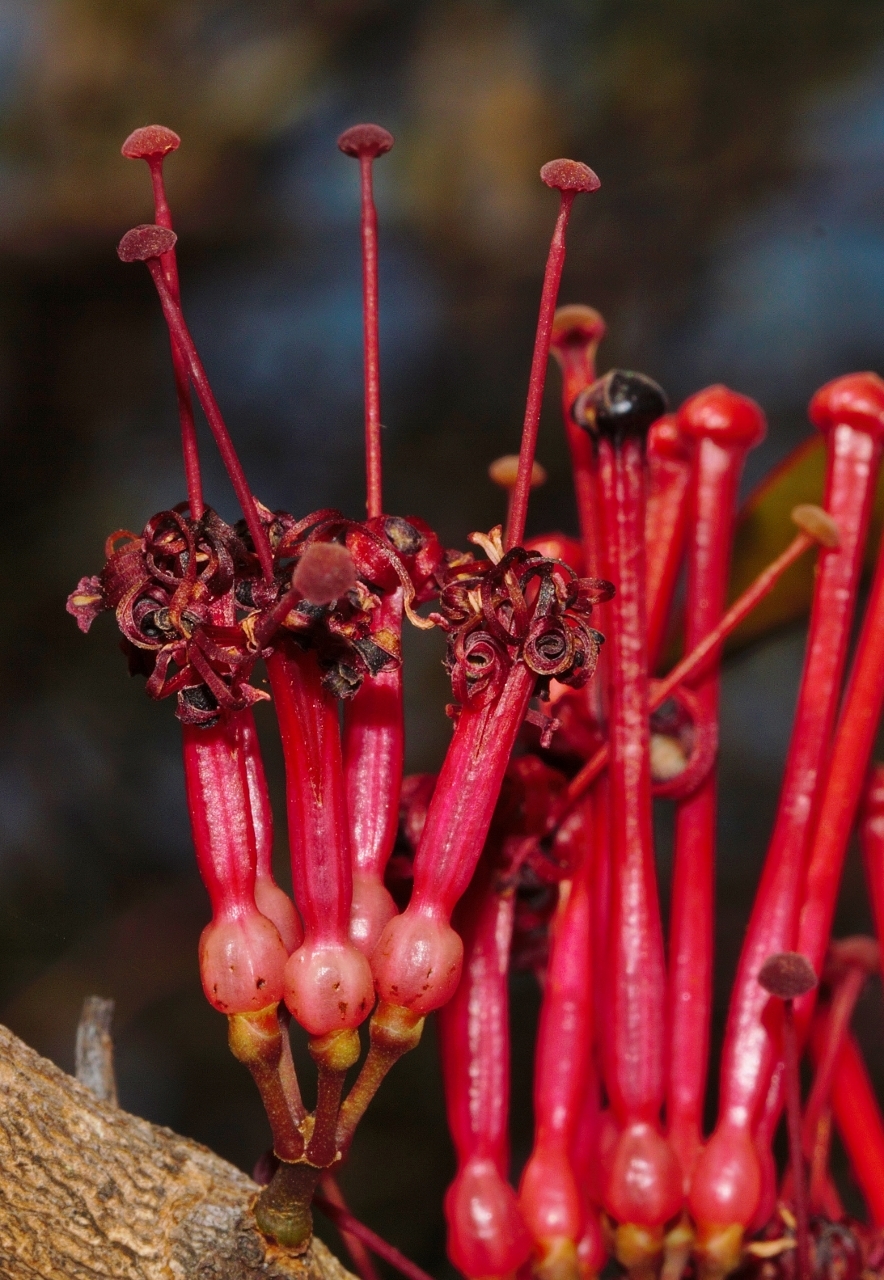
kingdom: Plantae
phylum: Tracheophyta
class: Magnoliopsida
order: Santalales
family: Loranthaceae
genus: Globimetula
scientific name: Globimetula mweroensis
